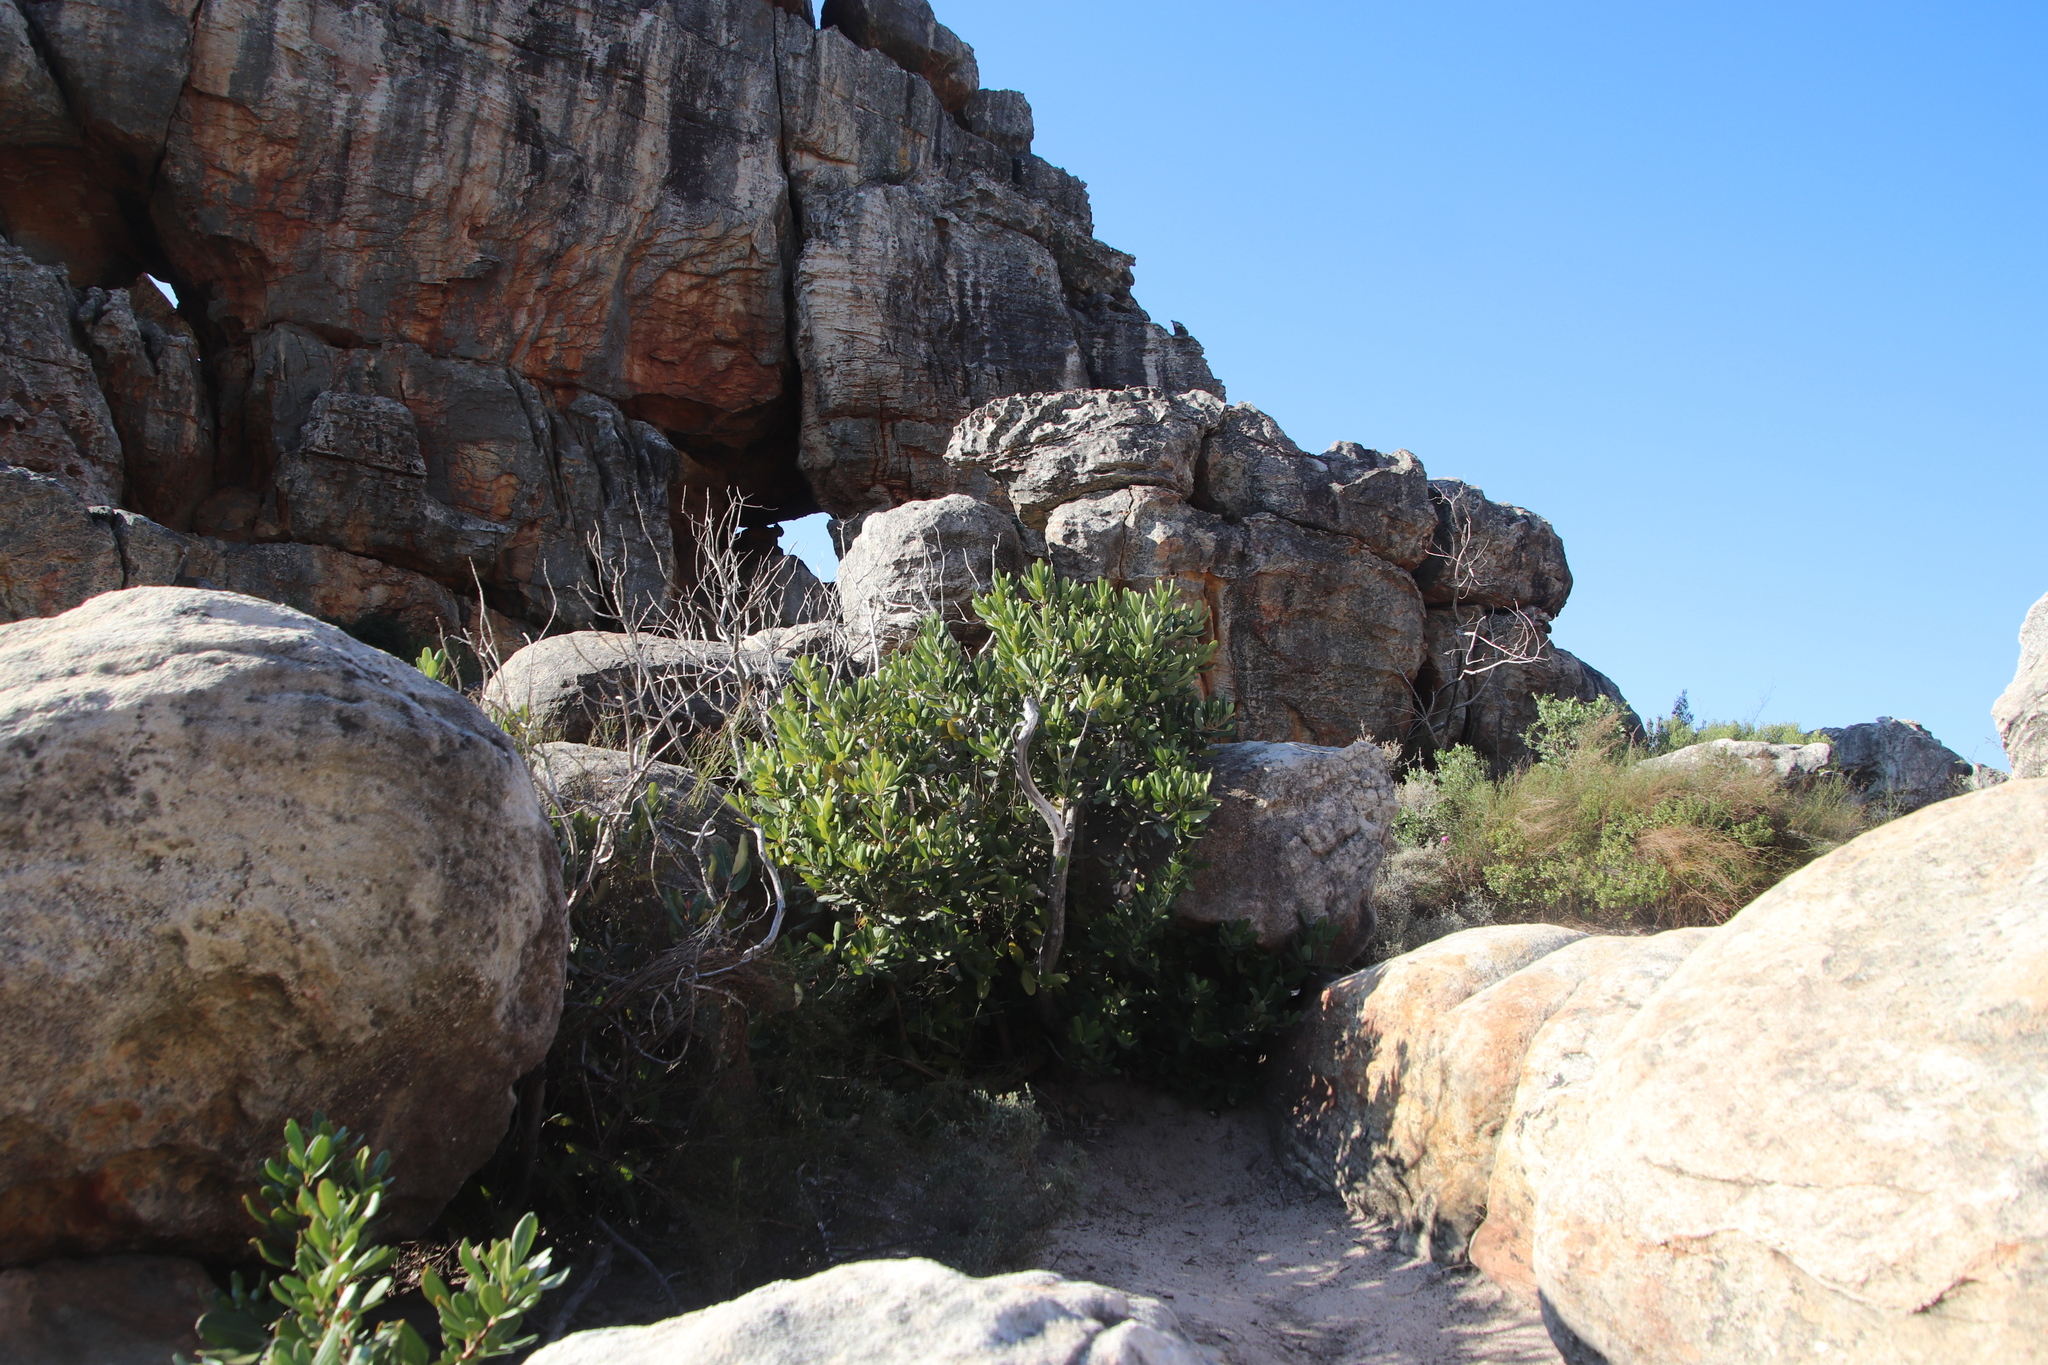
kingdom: Plantae
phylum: Tracheophyta
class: Magnoliopsida
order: Sapindales
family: Anacardiaceae
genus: Heeria
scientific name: Heeria argentea
